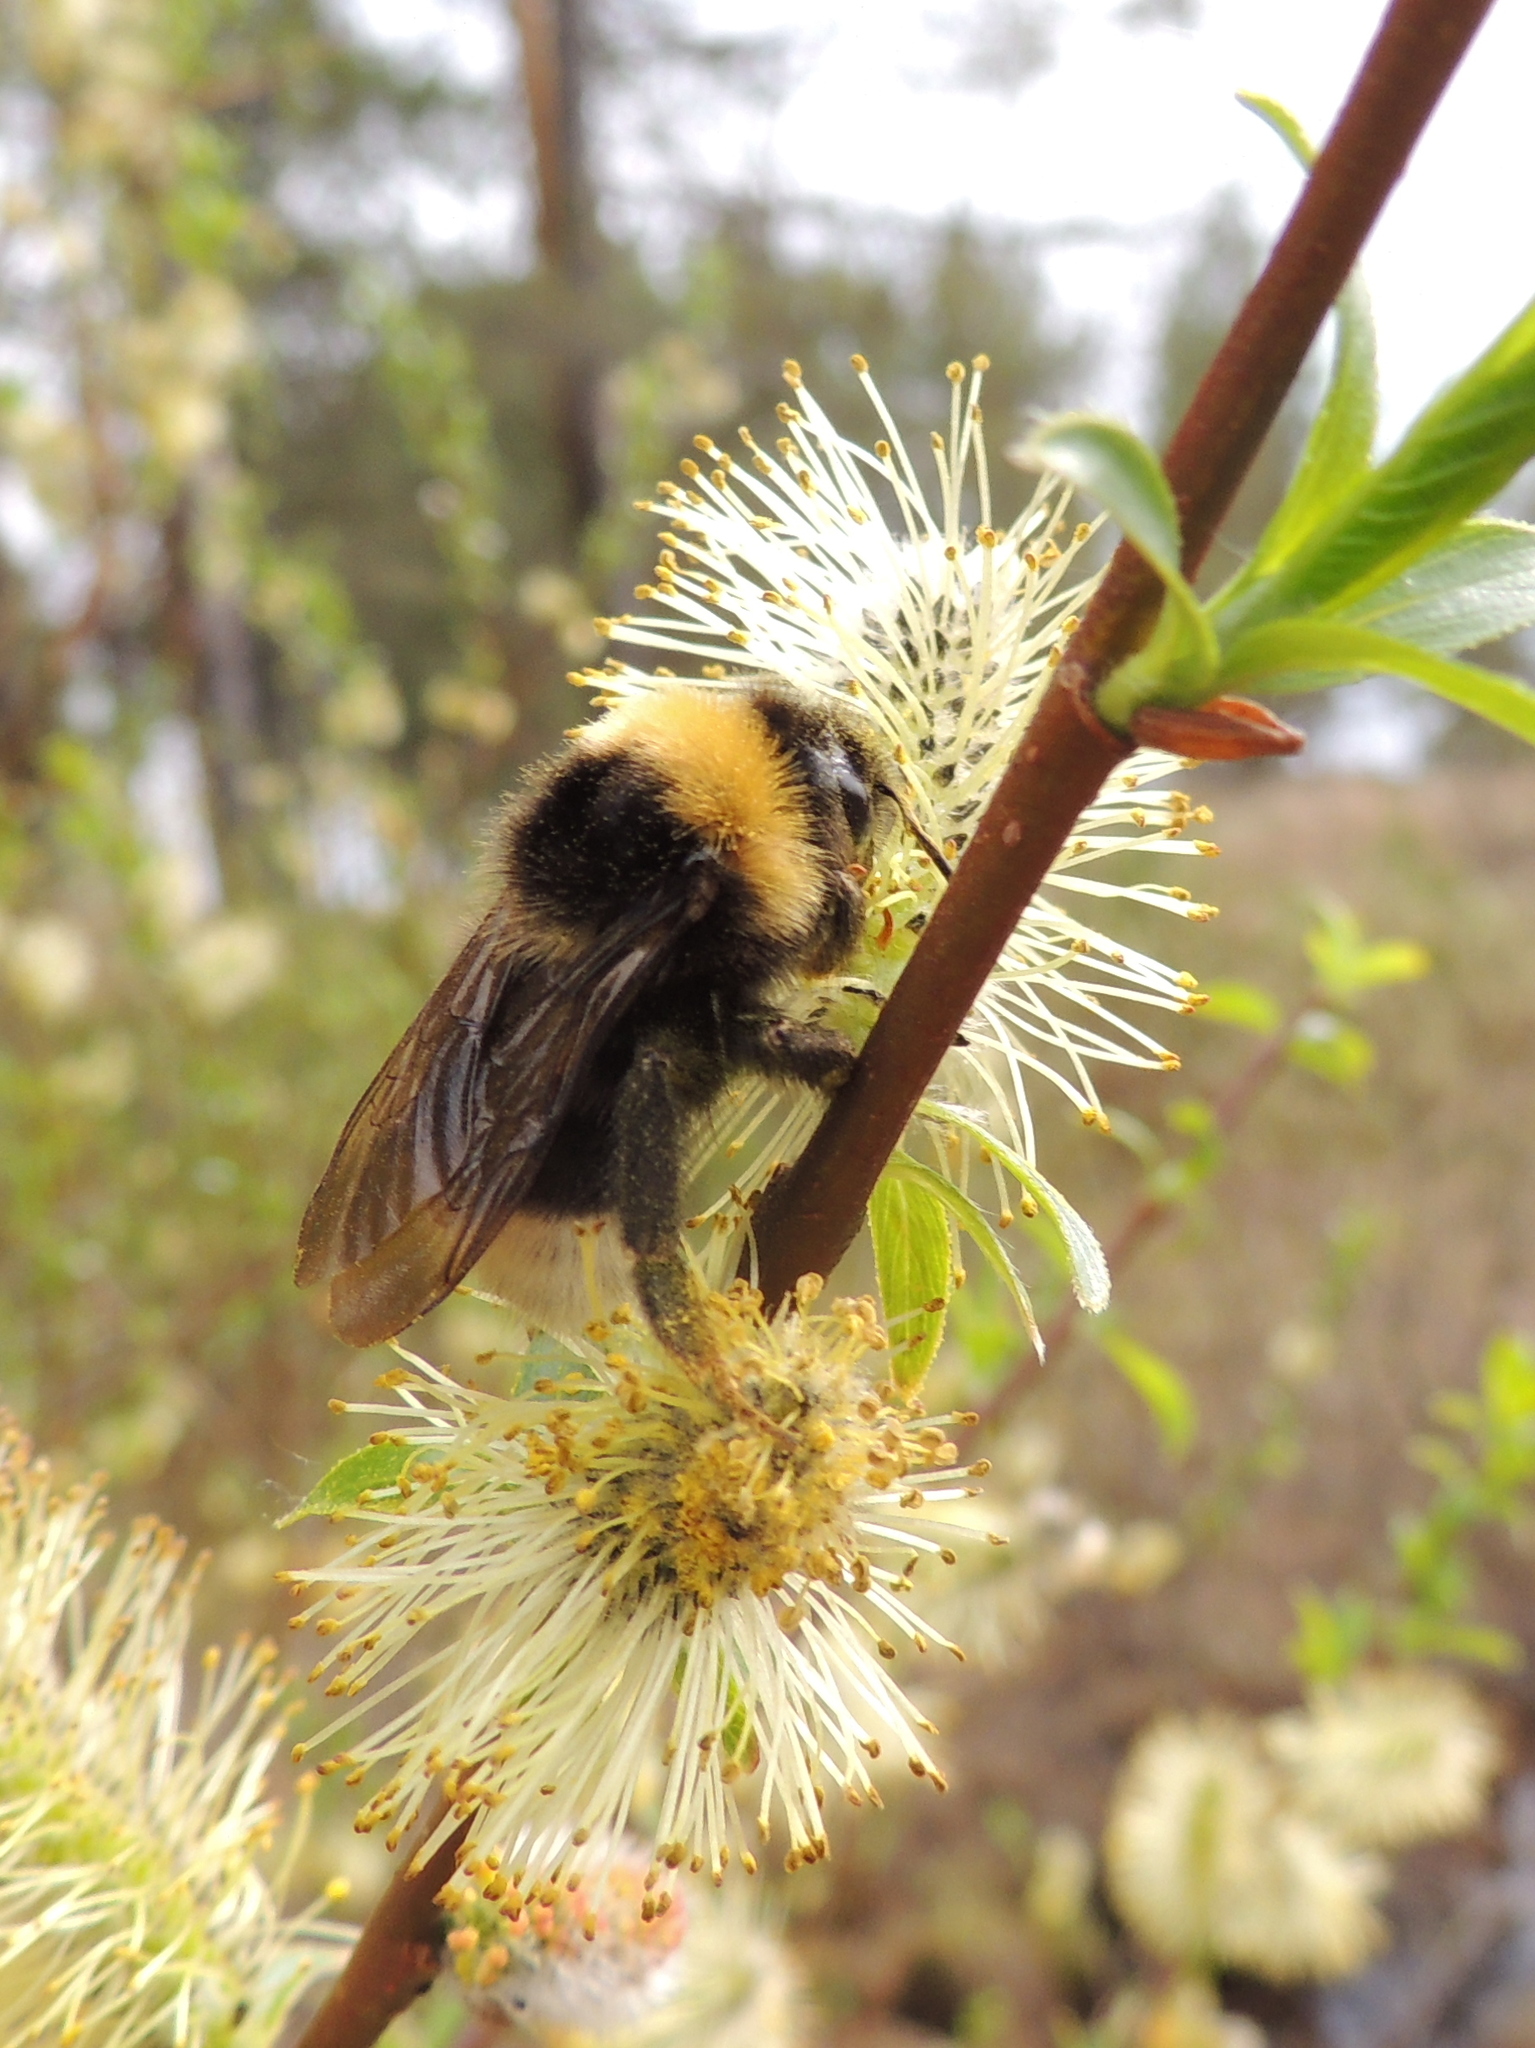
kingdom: Animalia
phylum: Arthropoda
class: Insecta
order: Hymenoptera
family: Apidae
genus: Bombus
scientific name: Bombus bohemicus
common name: Gypsy cuckoo bee
